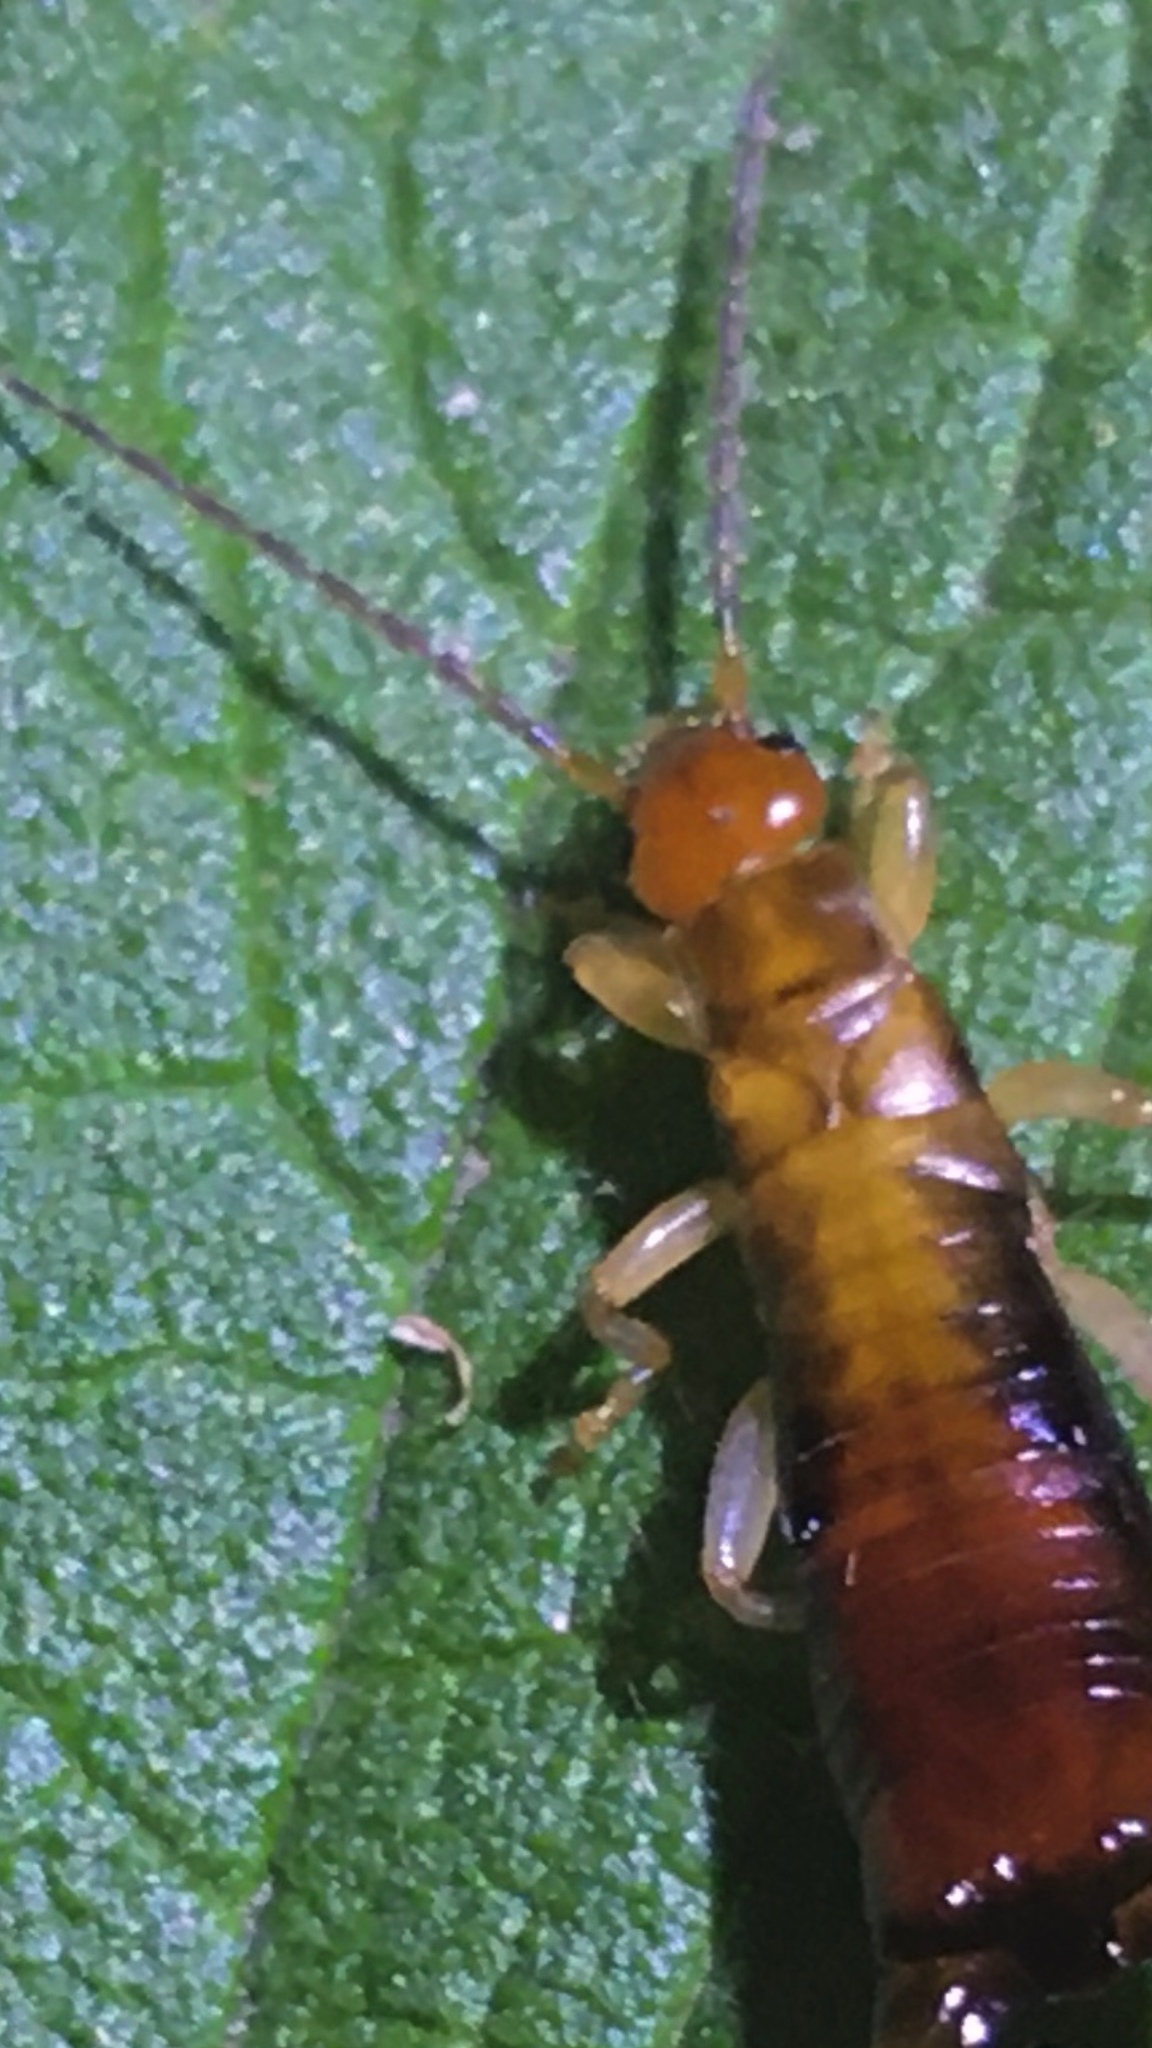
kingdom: Animalia
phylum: Arthropoda
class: Insecta
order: Dermaptera
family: Forficulidae
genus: Proforficula
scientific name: Proforficula peringueyi
